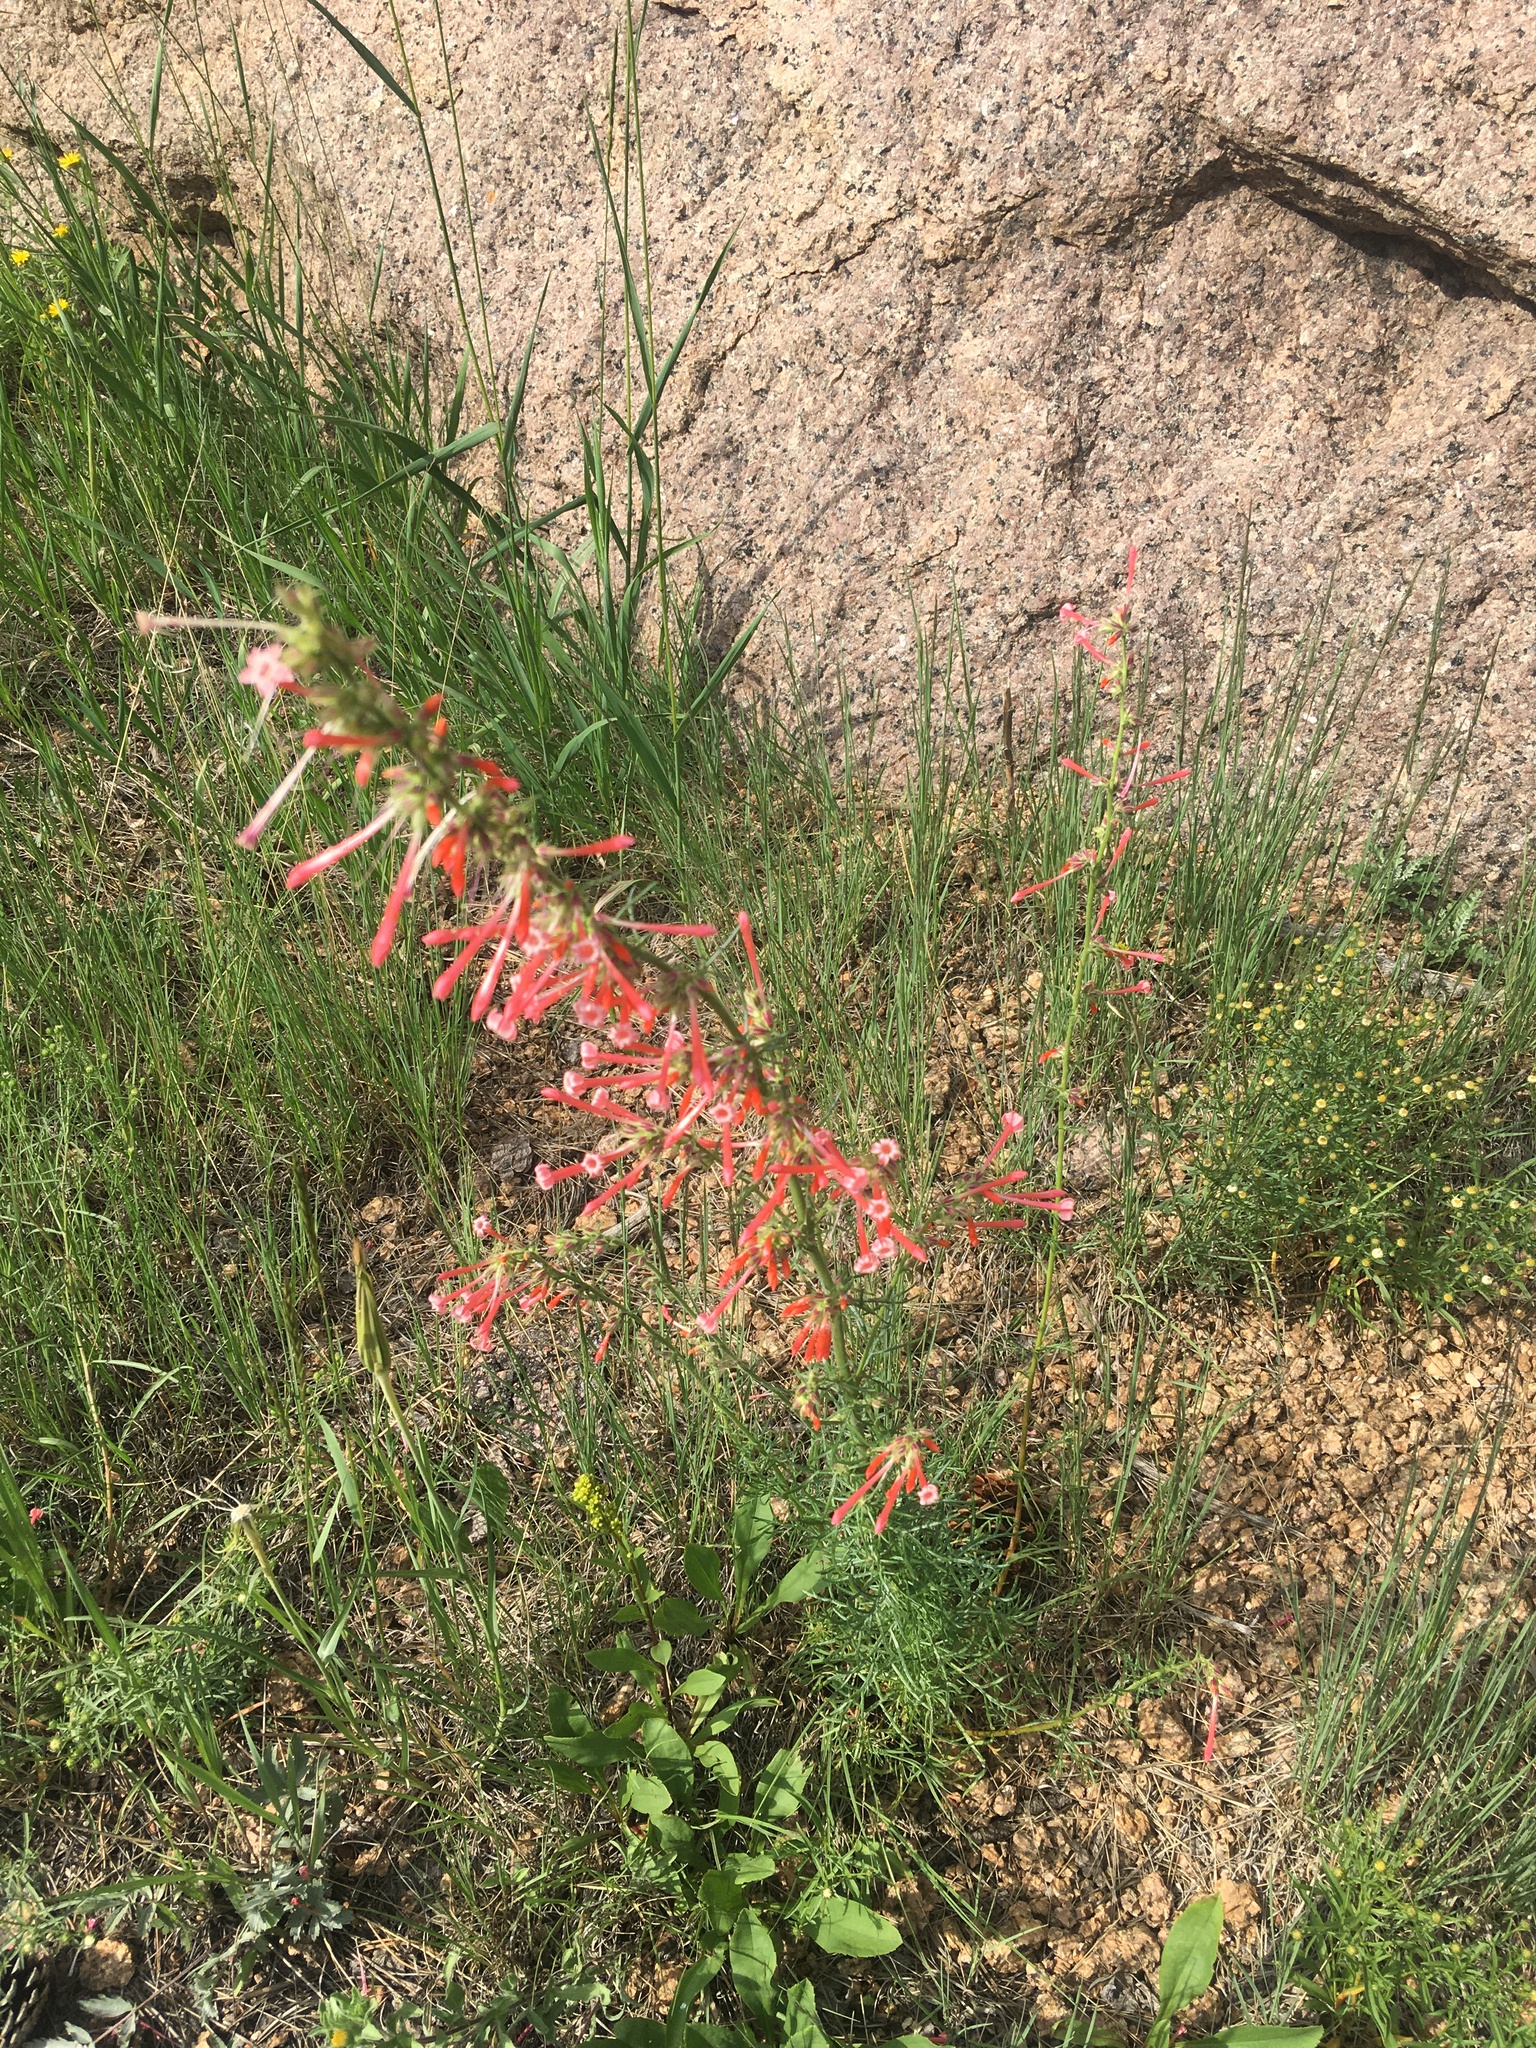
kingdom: Plantae
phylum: Tracheophyta
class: Magnoliopsida
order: Ericales
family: Polemoniaceae
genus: Ipomopsis
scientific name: Ipomopsis aggregata
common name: Scarlet gilia
